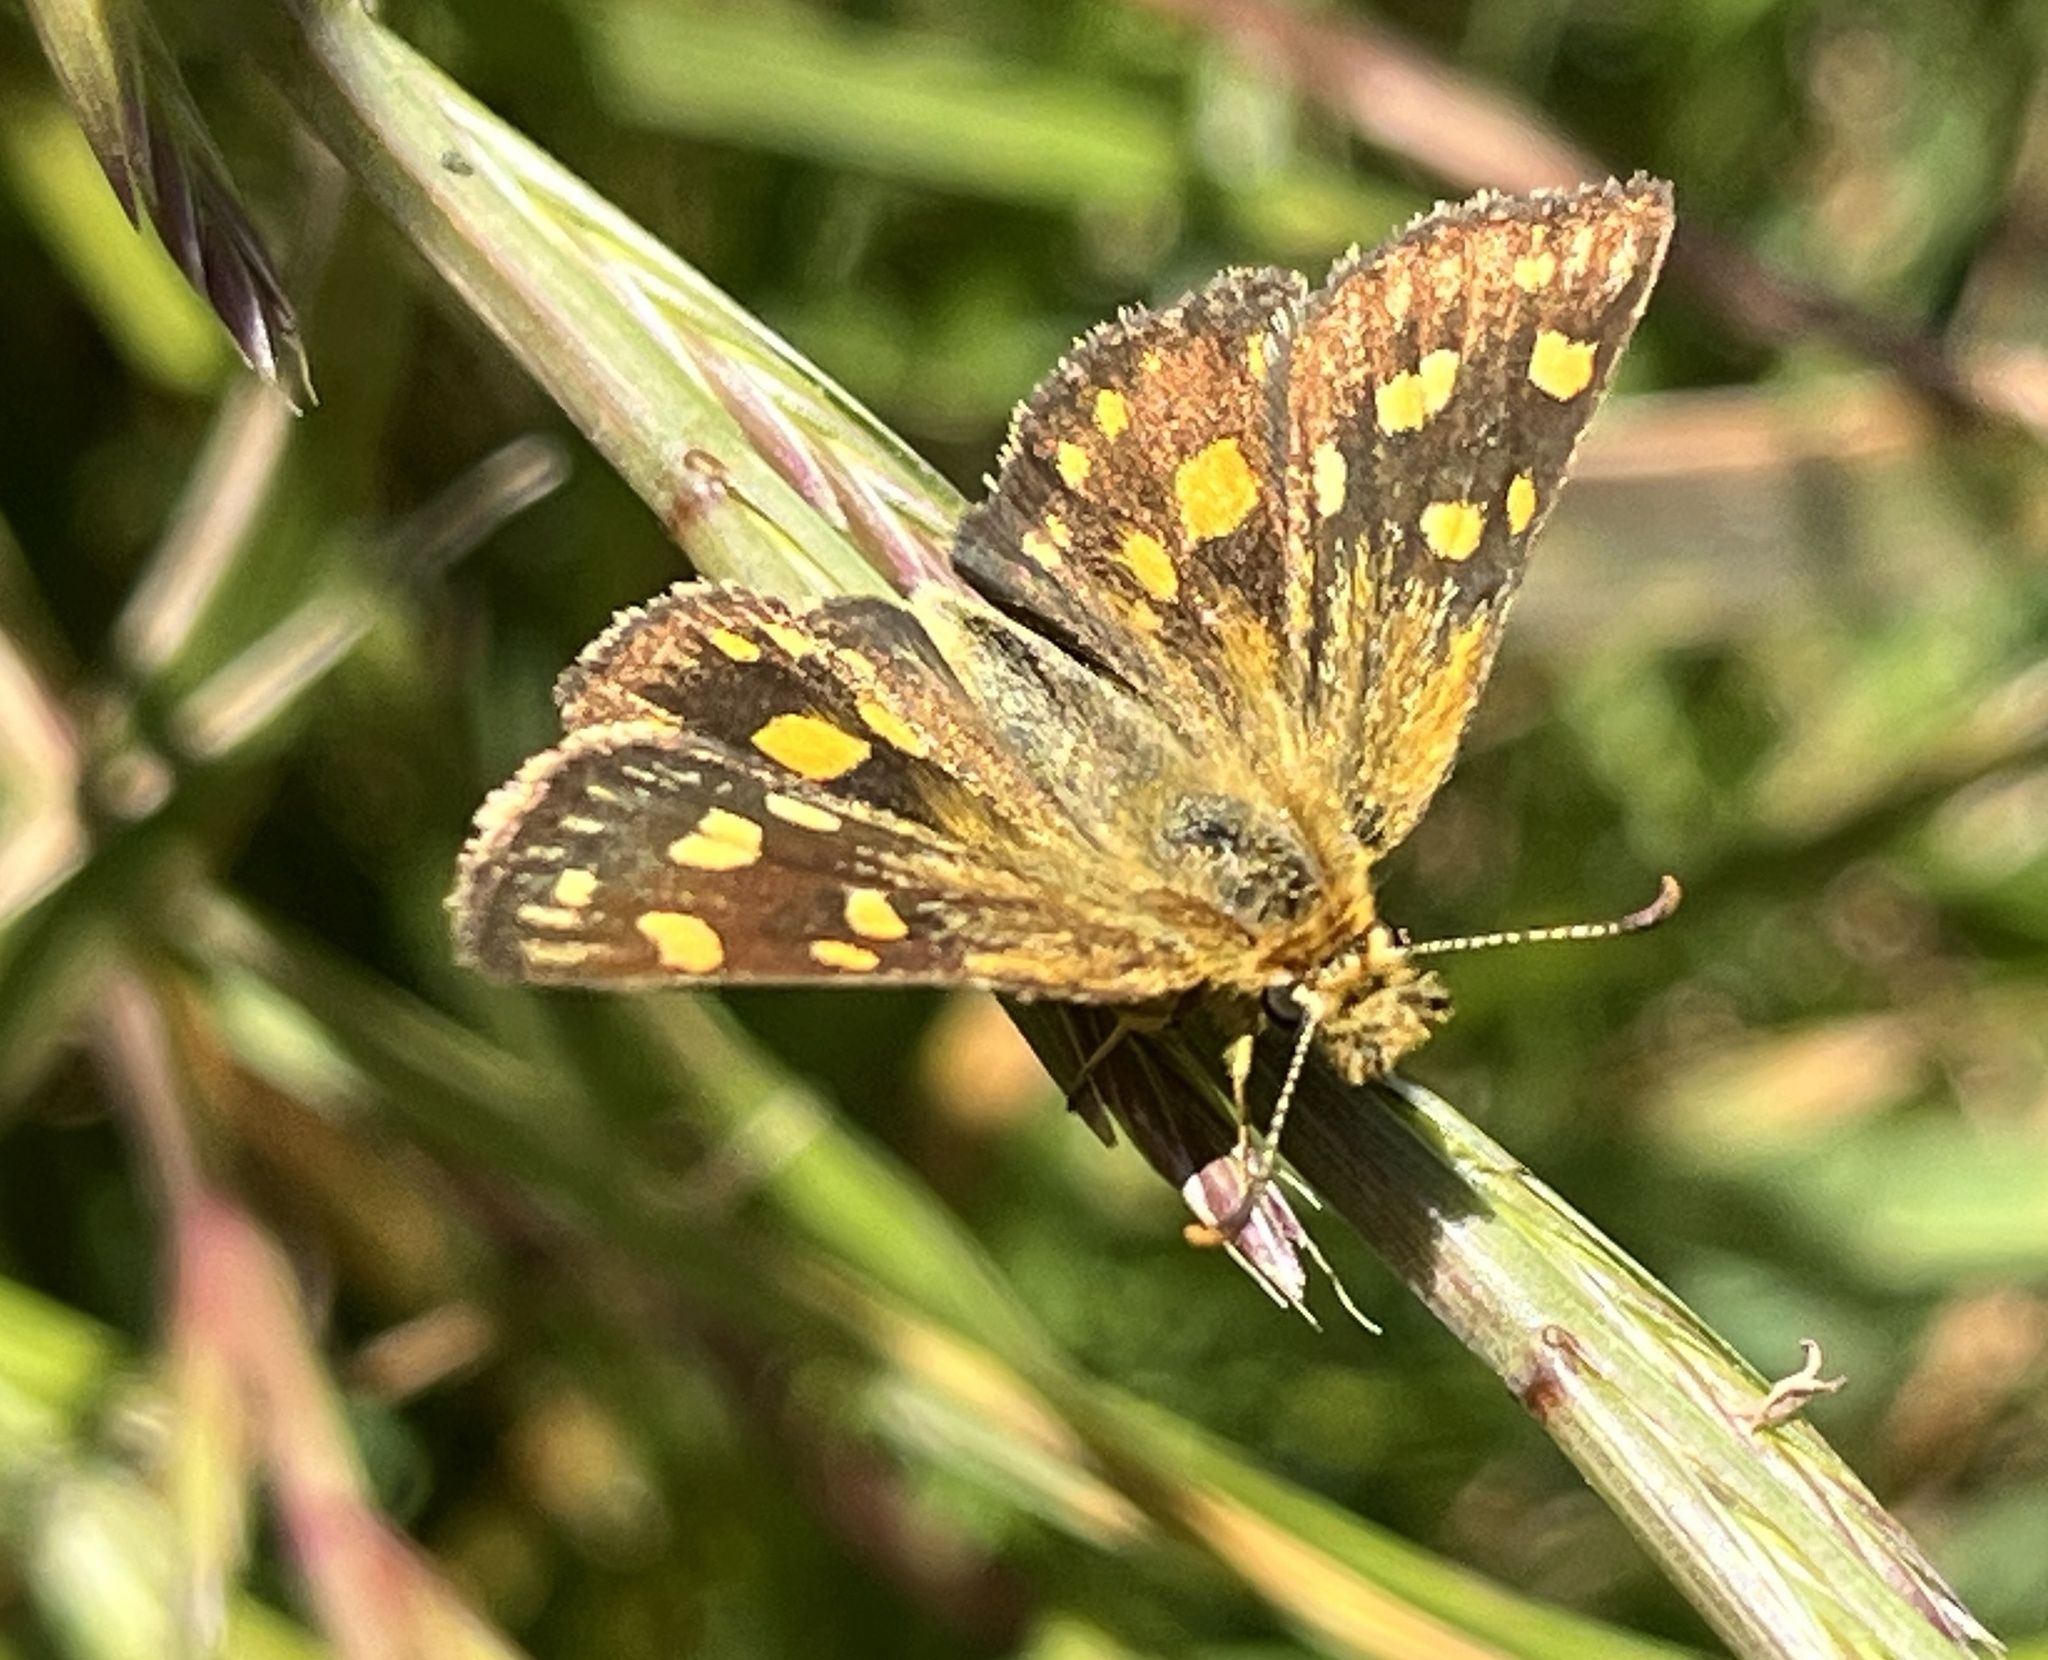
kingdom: Animalia
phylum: Arthropoda
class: Insecta
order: Lepidoptera
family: Hesperiidae
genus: Metisella
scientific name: Metisella malgacha
